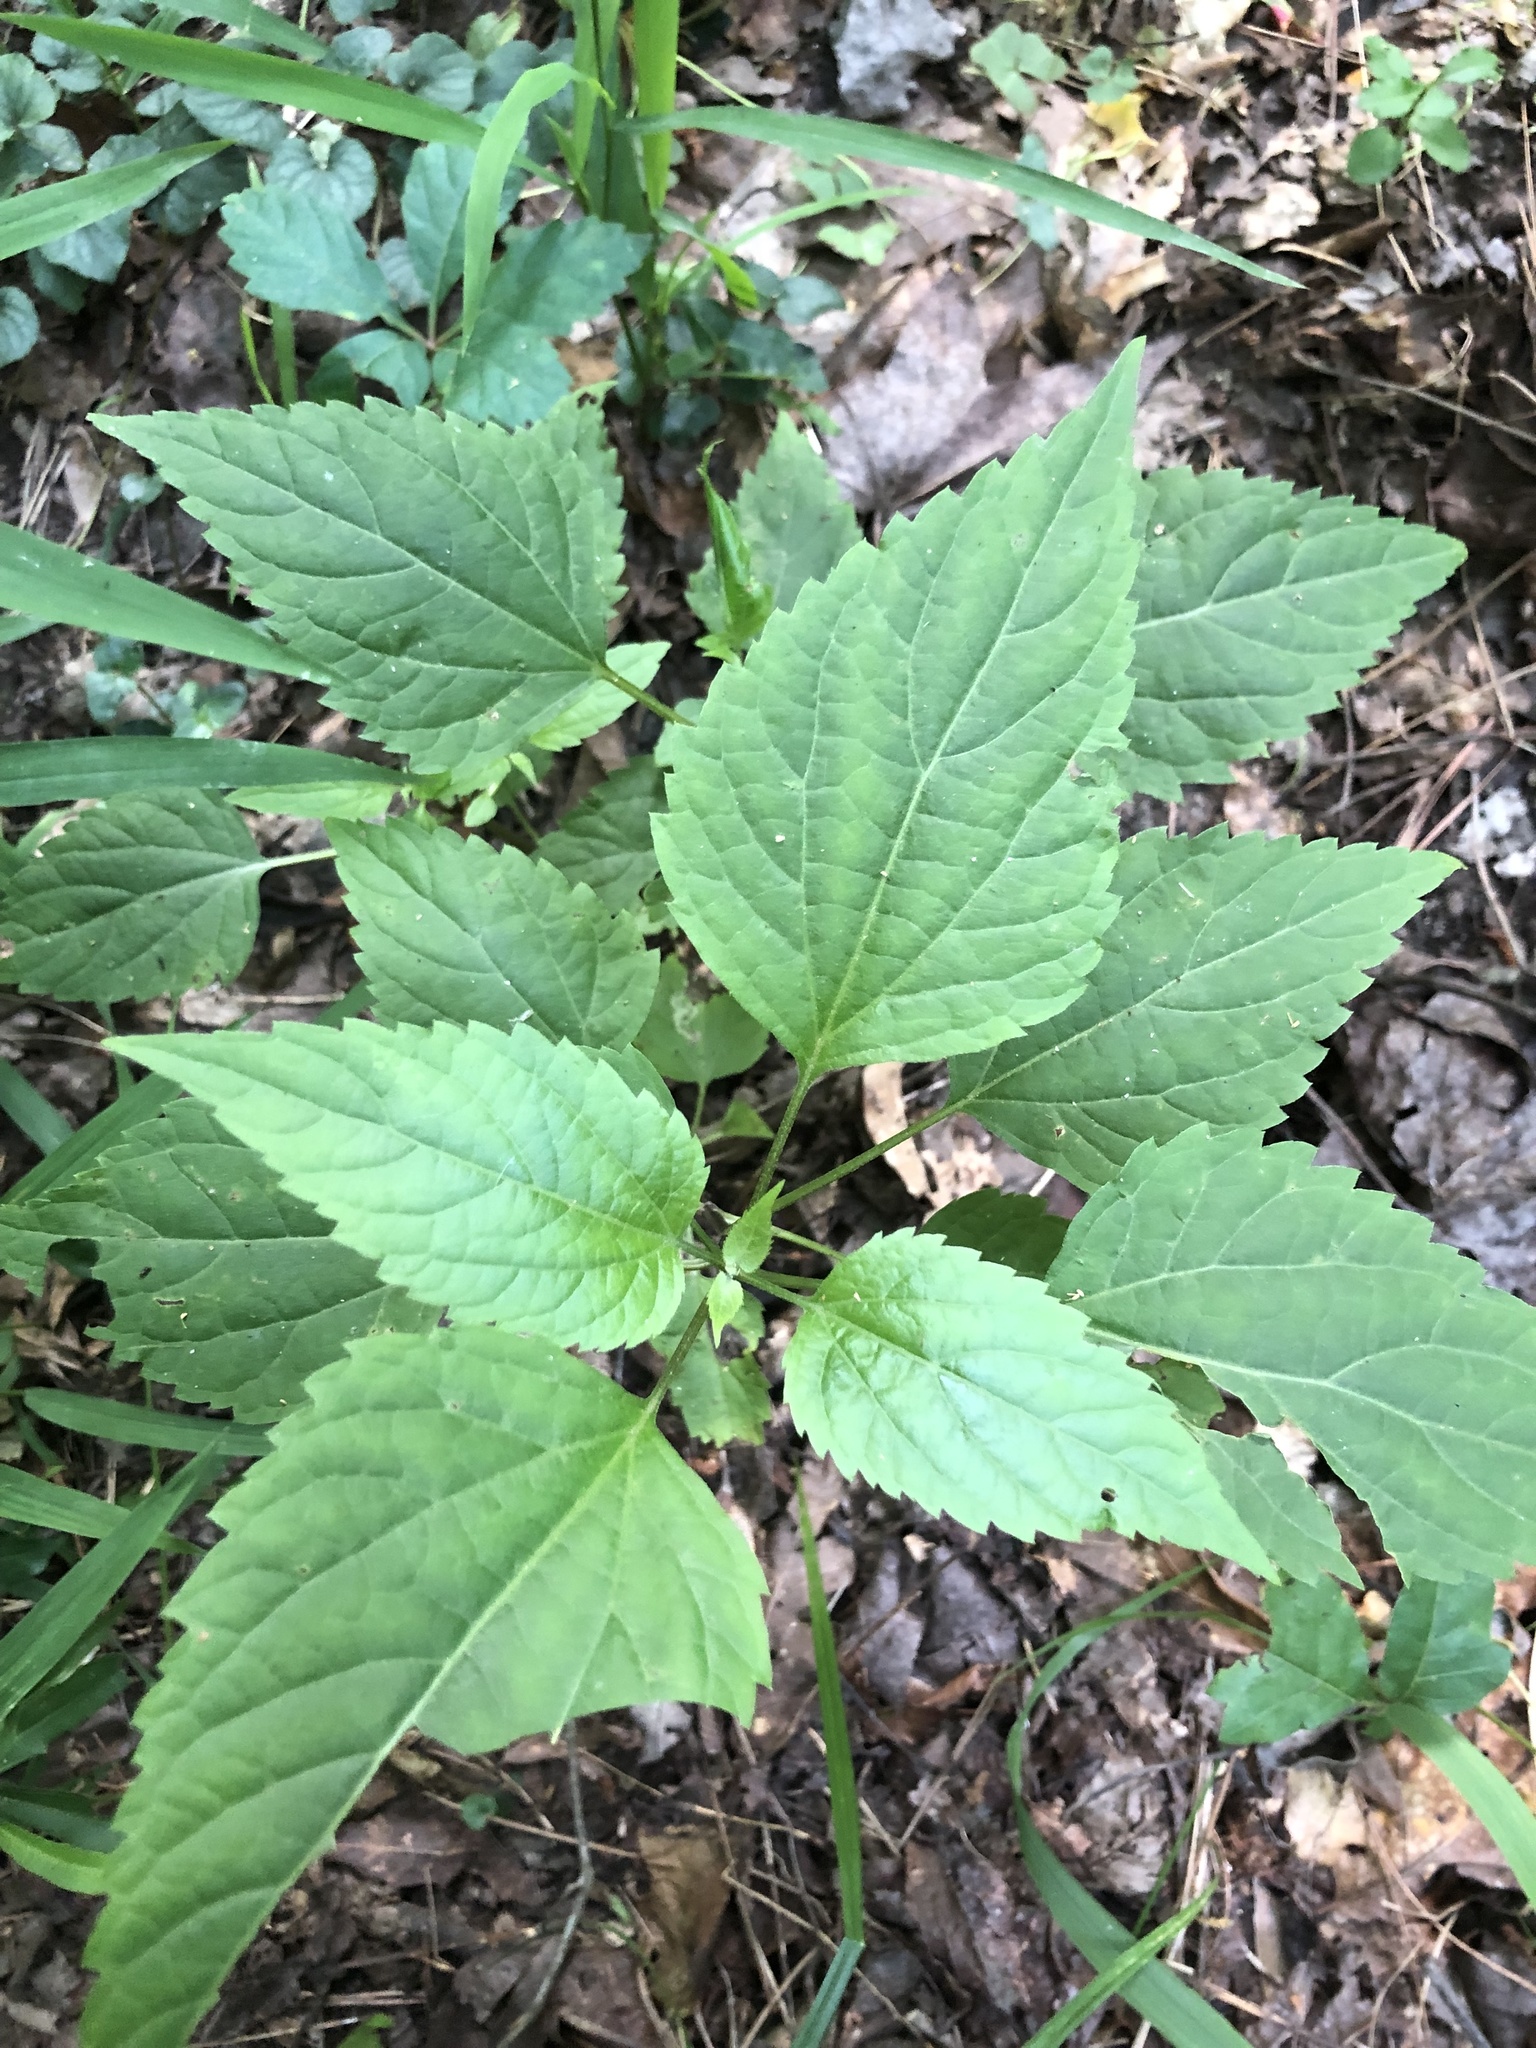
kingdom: Plantae
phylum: Tracheophyta
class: Magnoliopsida
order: Asterales
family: Asteraceae
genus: Ageratina
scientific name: Ageratina altissima
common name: White snakeroot
